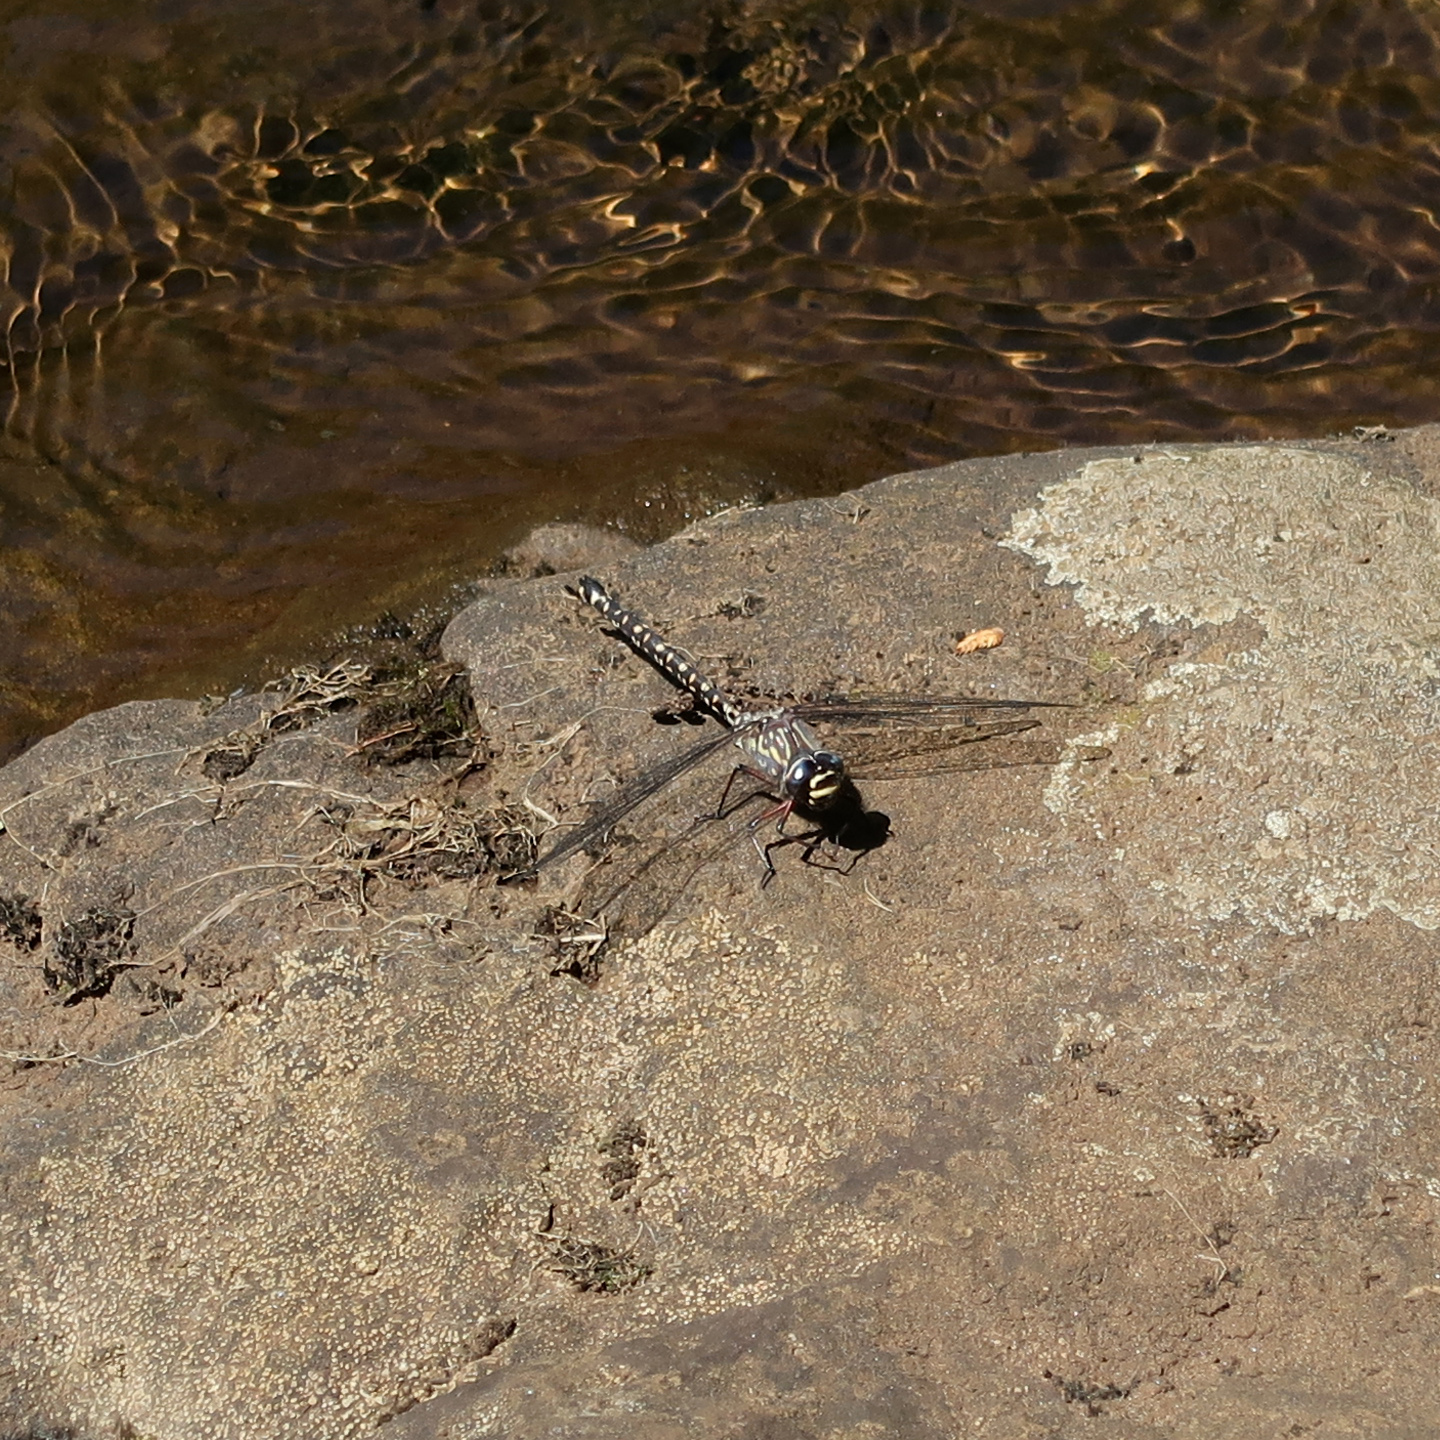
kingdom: Animalia
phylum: Arthropoda
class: Insecta
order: Odonata
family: Aeshnidae
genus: Austroaeschna
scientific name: Austroaeschna tasmanica
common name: Tasmanian darner
